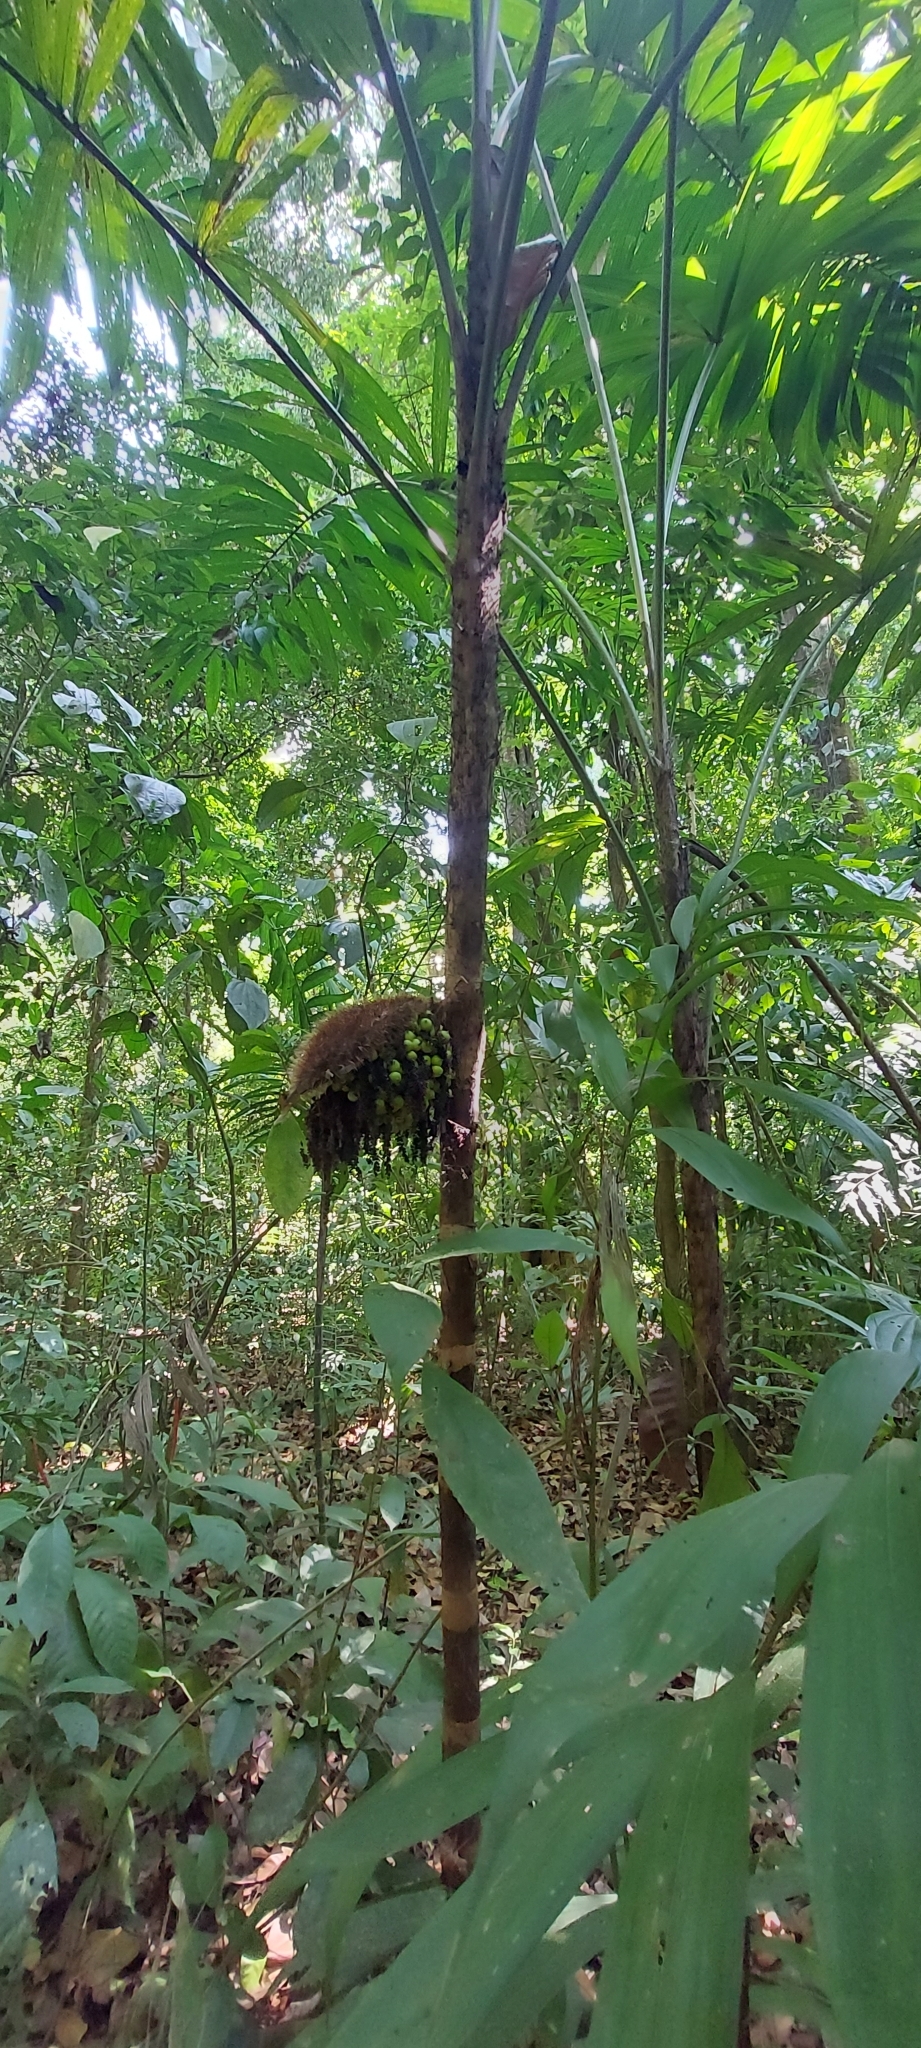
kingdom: Plantae
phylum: Tracheophyta
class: Liliopsida
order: Arecales
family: Arecaceae
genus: Bactris
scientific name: Bactris coloradonis
